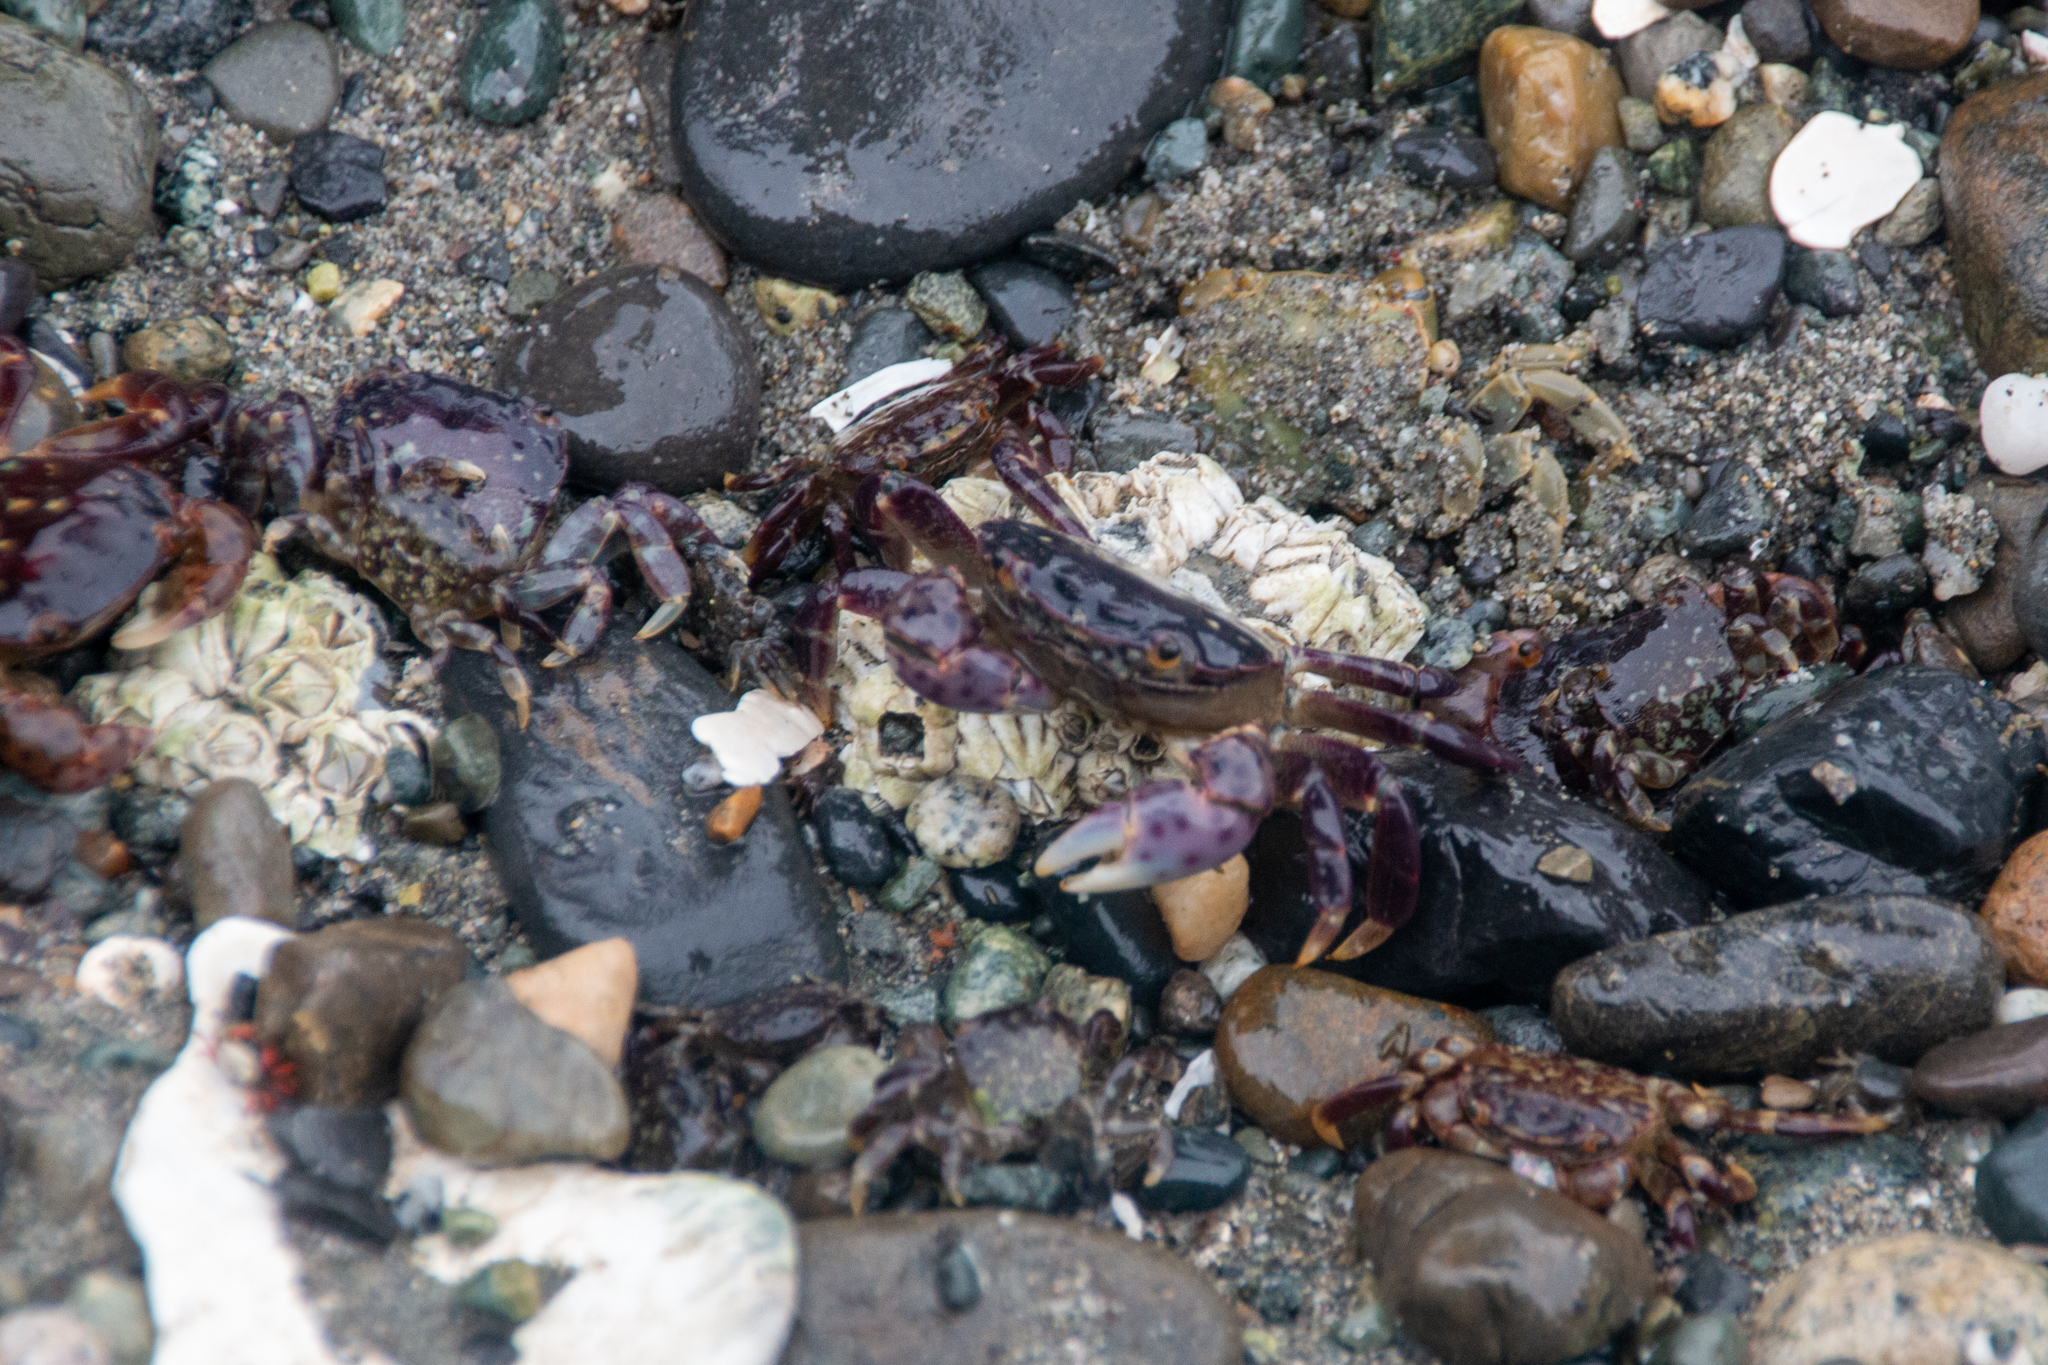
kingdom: Animalia
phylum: Arthropoda
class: Malacostraca
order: Decapoda
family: Varunidae
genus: Hemigrapsus
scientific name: Hemigrapsus nudus
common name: Purple shore crab
